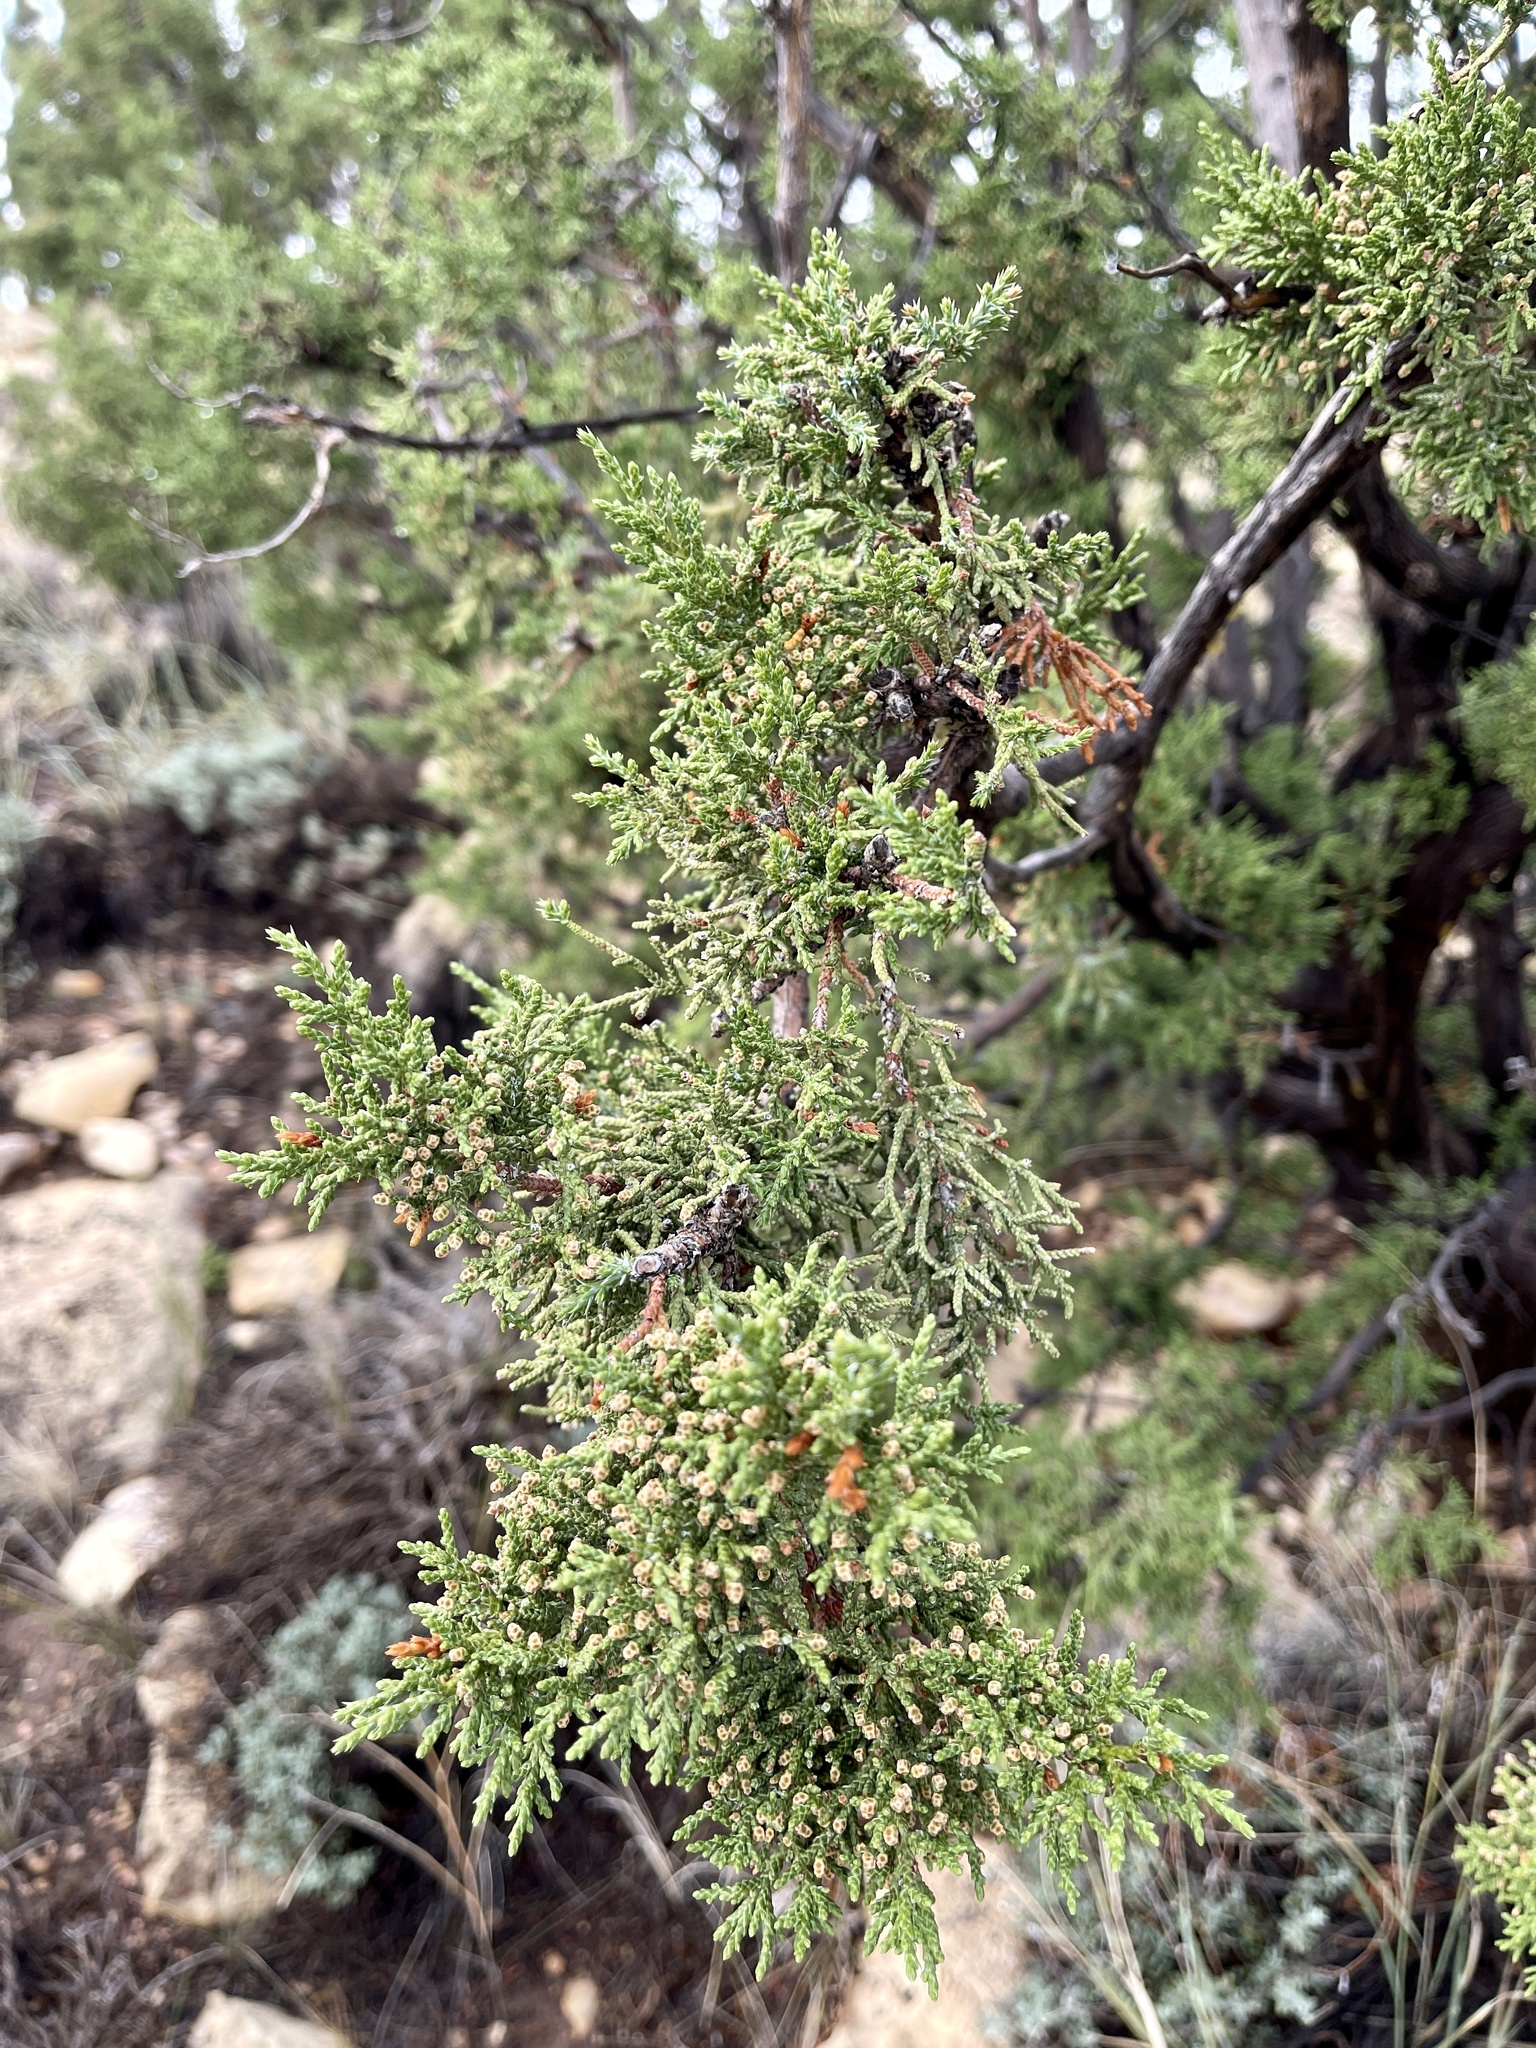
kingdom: Plantae
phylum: Tracheophyta
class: Pinopsida
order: Pinales
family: Cupressaceae
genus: Juniperus
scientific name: Juniperus monosperma
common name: One-seed juniper
